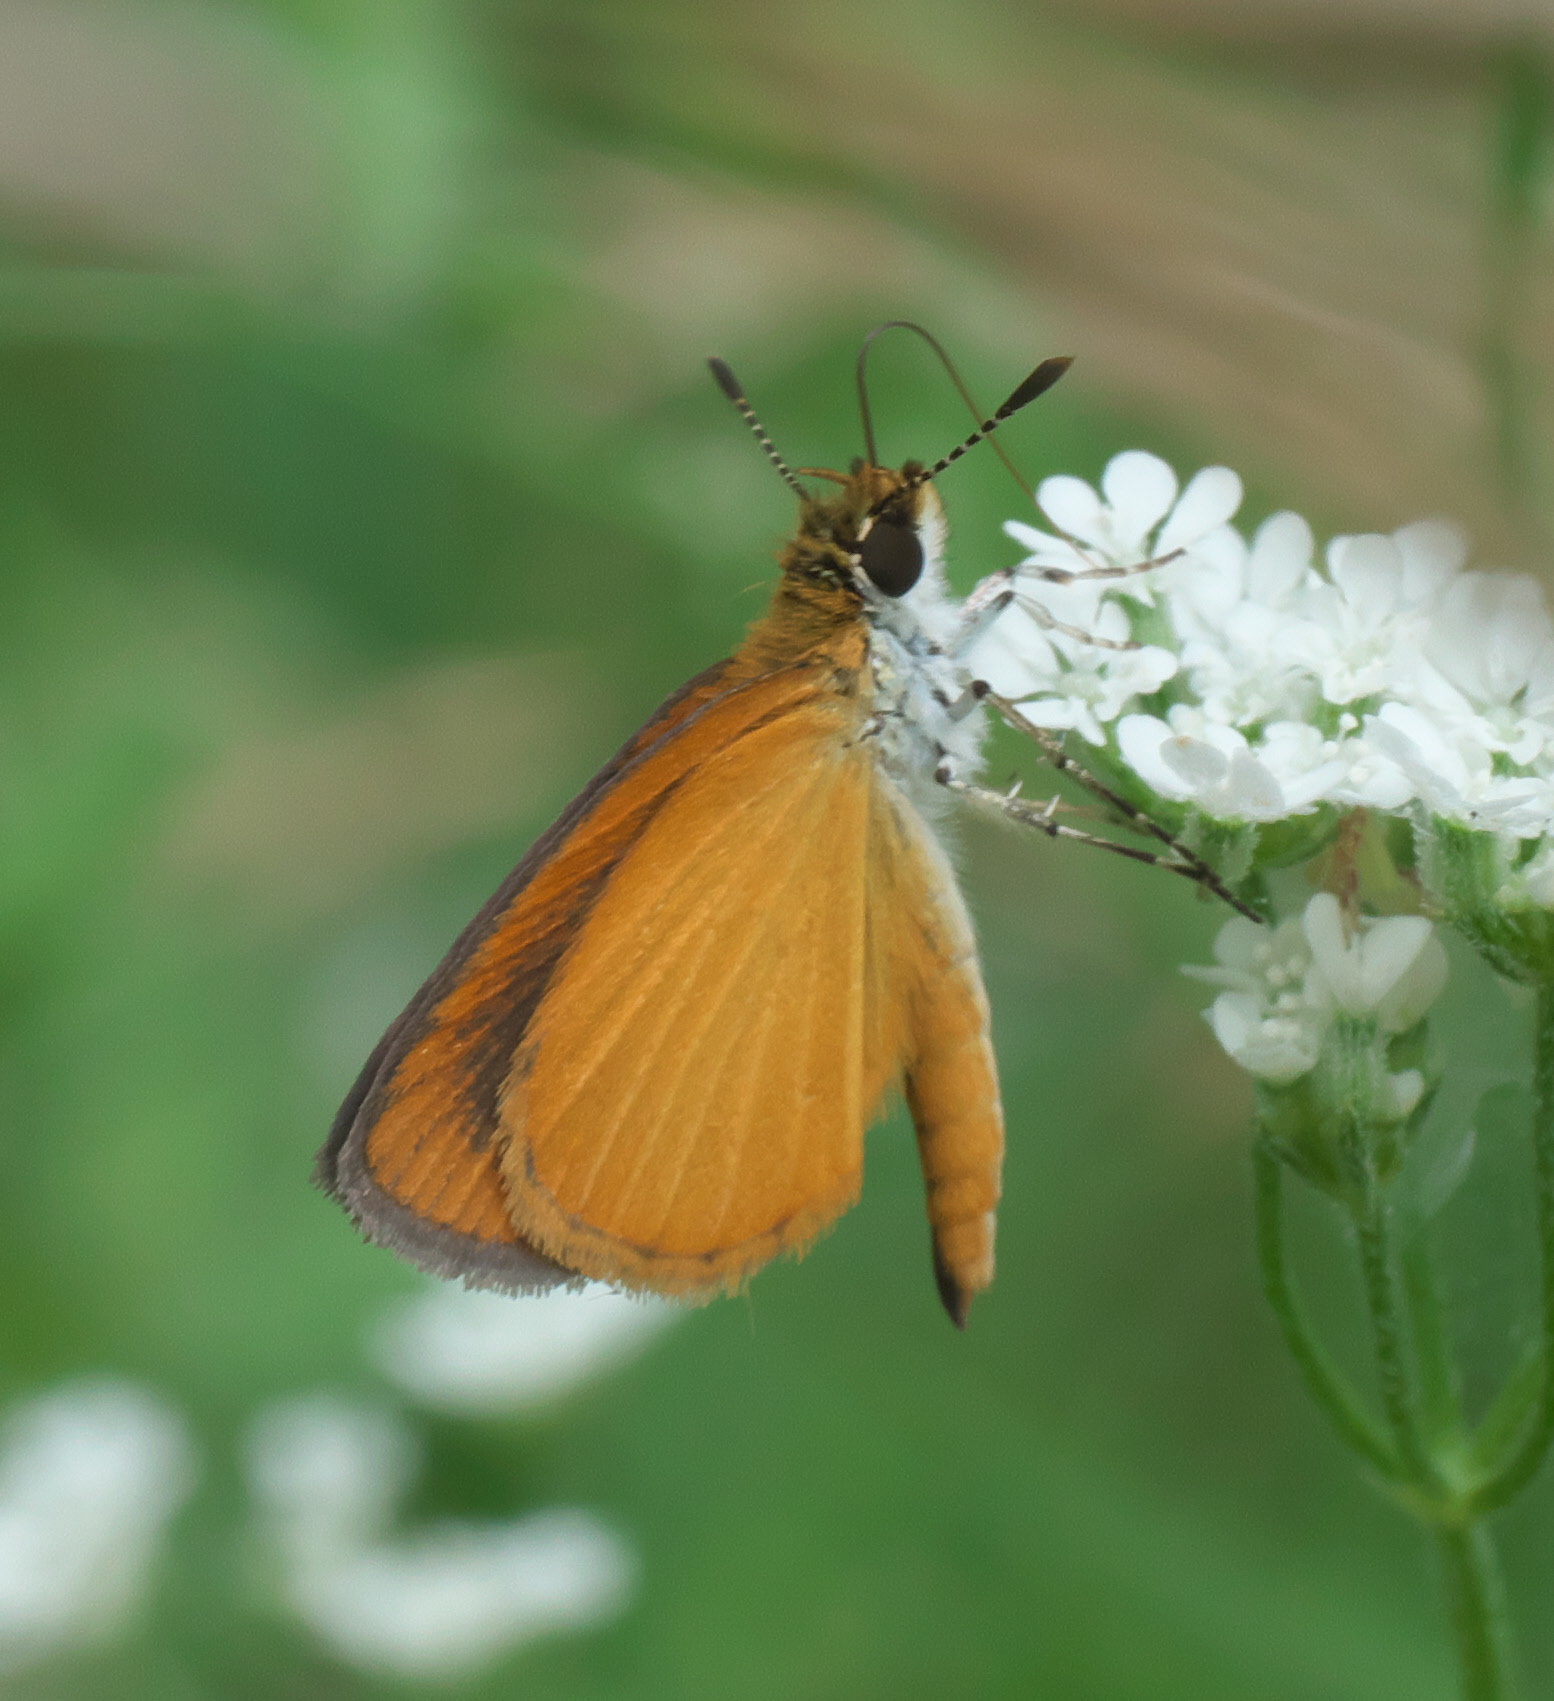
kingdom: Animalia
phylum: Arthropoda
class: Insecta
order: Lepidoptera
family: Hesperiidae
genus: Ancyloxypha
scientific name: Ancyloxypha numitor
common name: Least skipper
